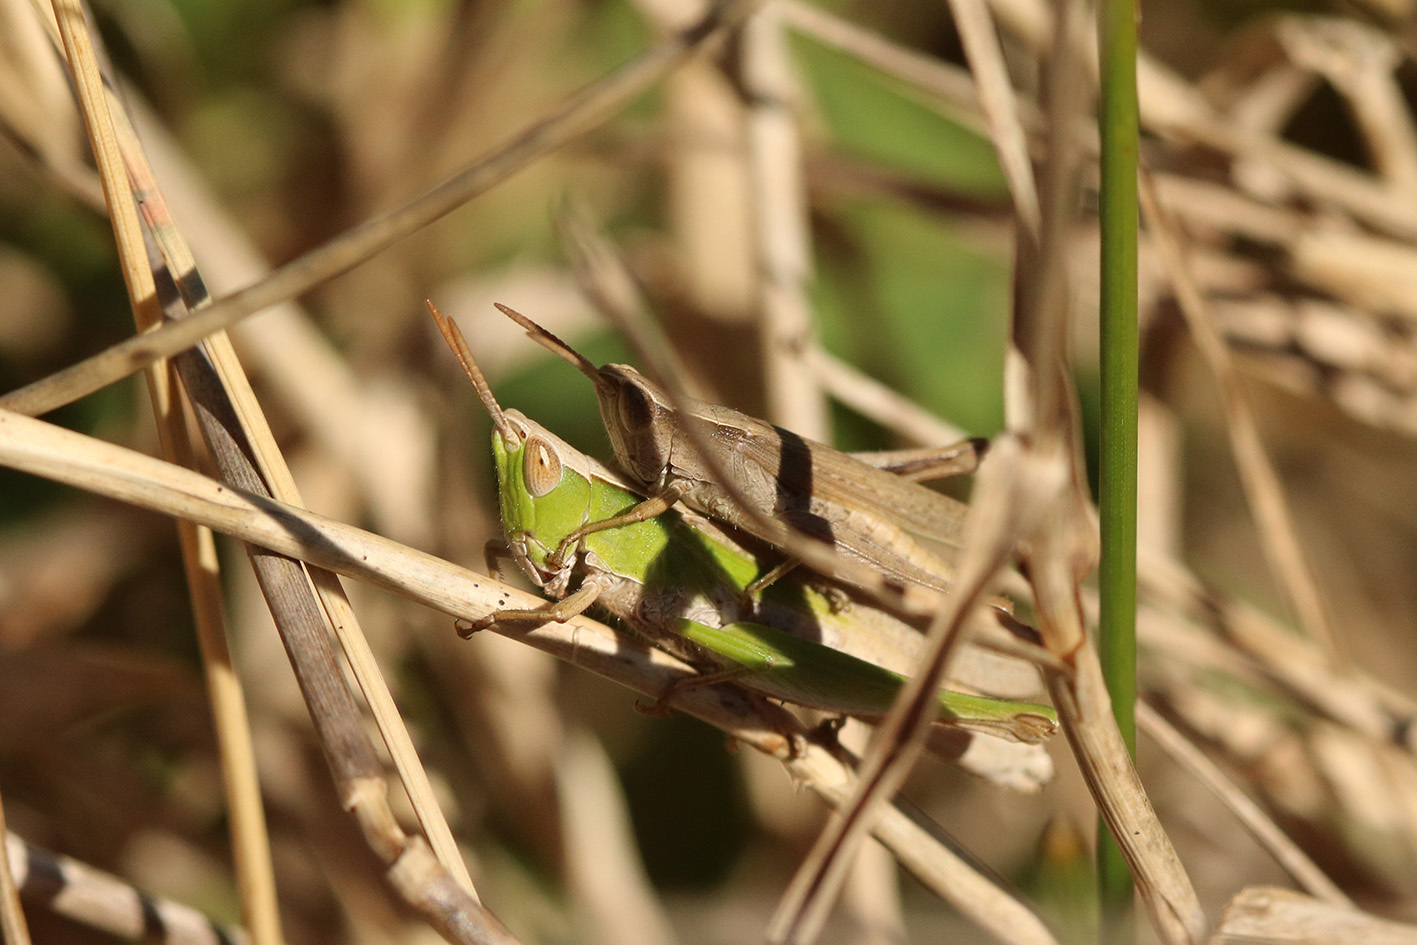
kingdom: Animalia
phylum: Arthropoda
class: Insecta
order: Orthoptera
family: Acrididae
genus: Laplatacris
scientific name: Laplatacris dispar
